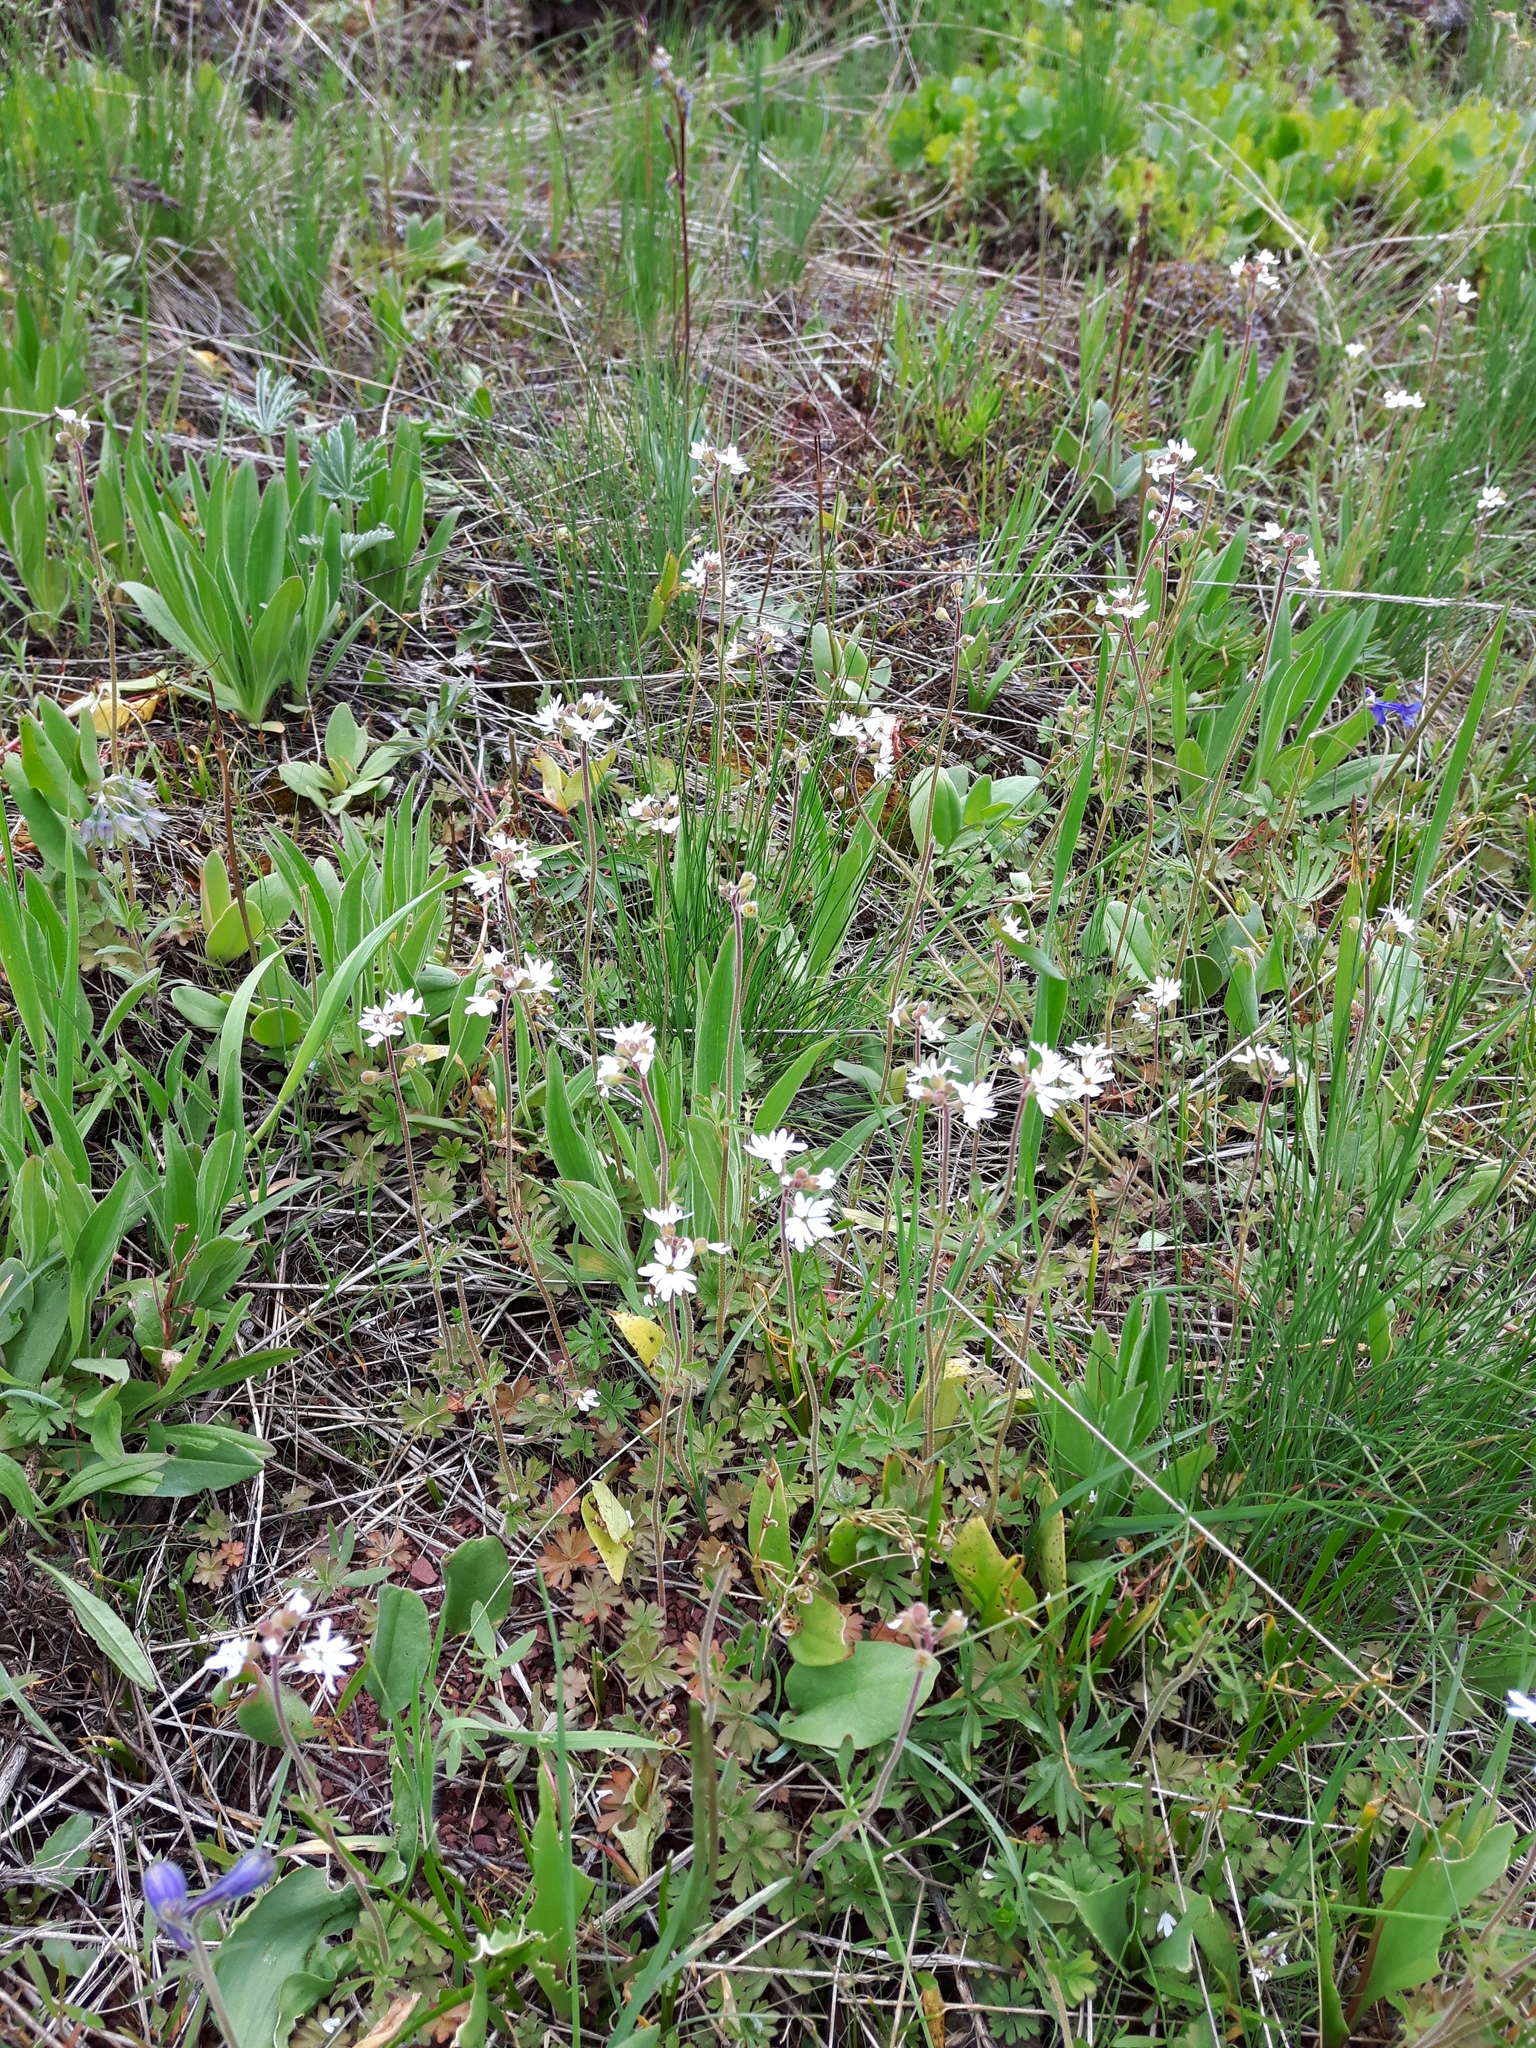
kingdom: Plantae
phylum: Tracheophyta
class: Magnoliopsida
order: Saxifragales
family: Saxifragaceae
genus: Lithophragma
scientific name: Lithophragma parviflorum
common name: Small-flowered fringe-cup
